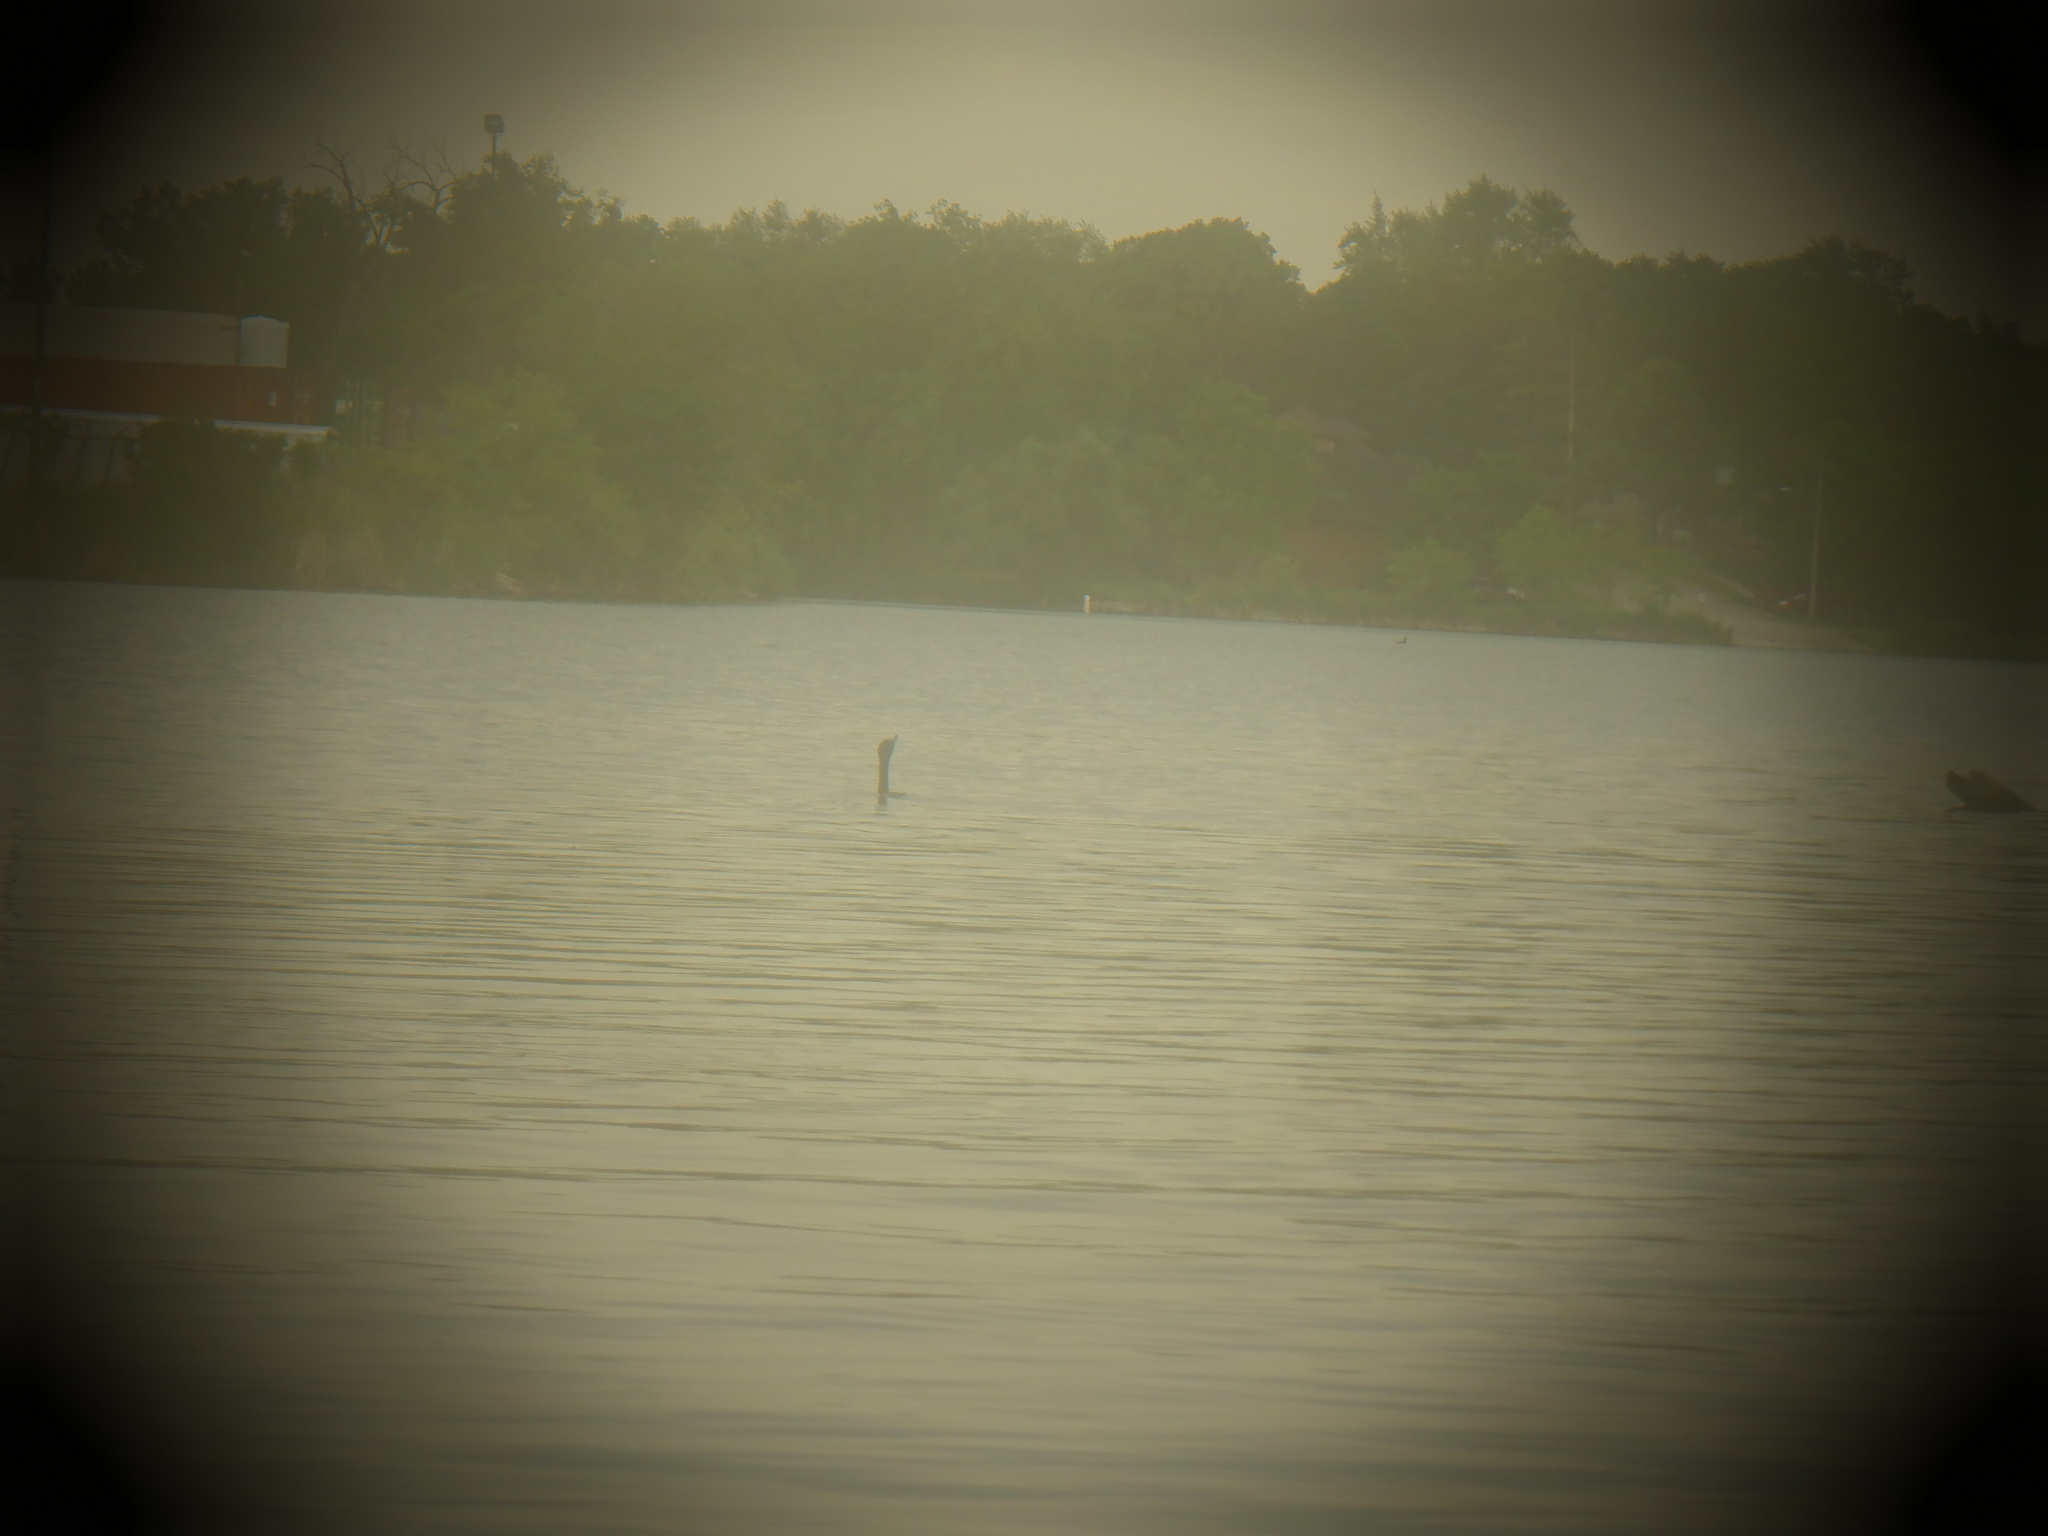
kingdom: Animalia
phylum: Chordata
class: Aves
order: Suliformes
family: Phalacrocoracidae
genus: Phalacrocorax
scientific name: Phalacrocorax auritus
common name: Double-crested cormorant
